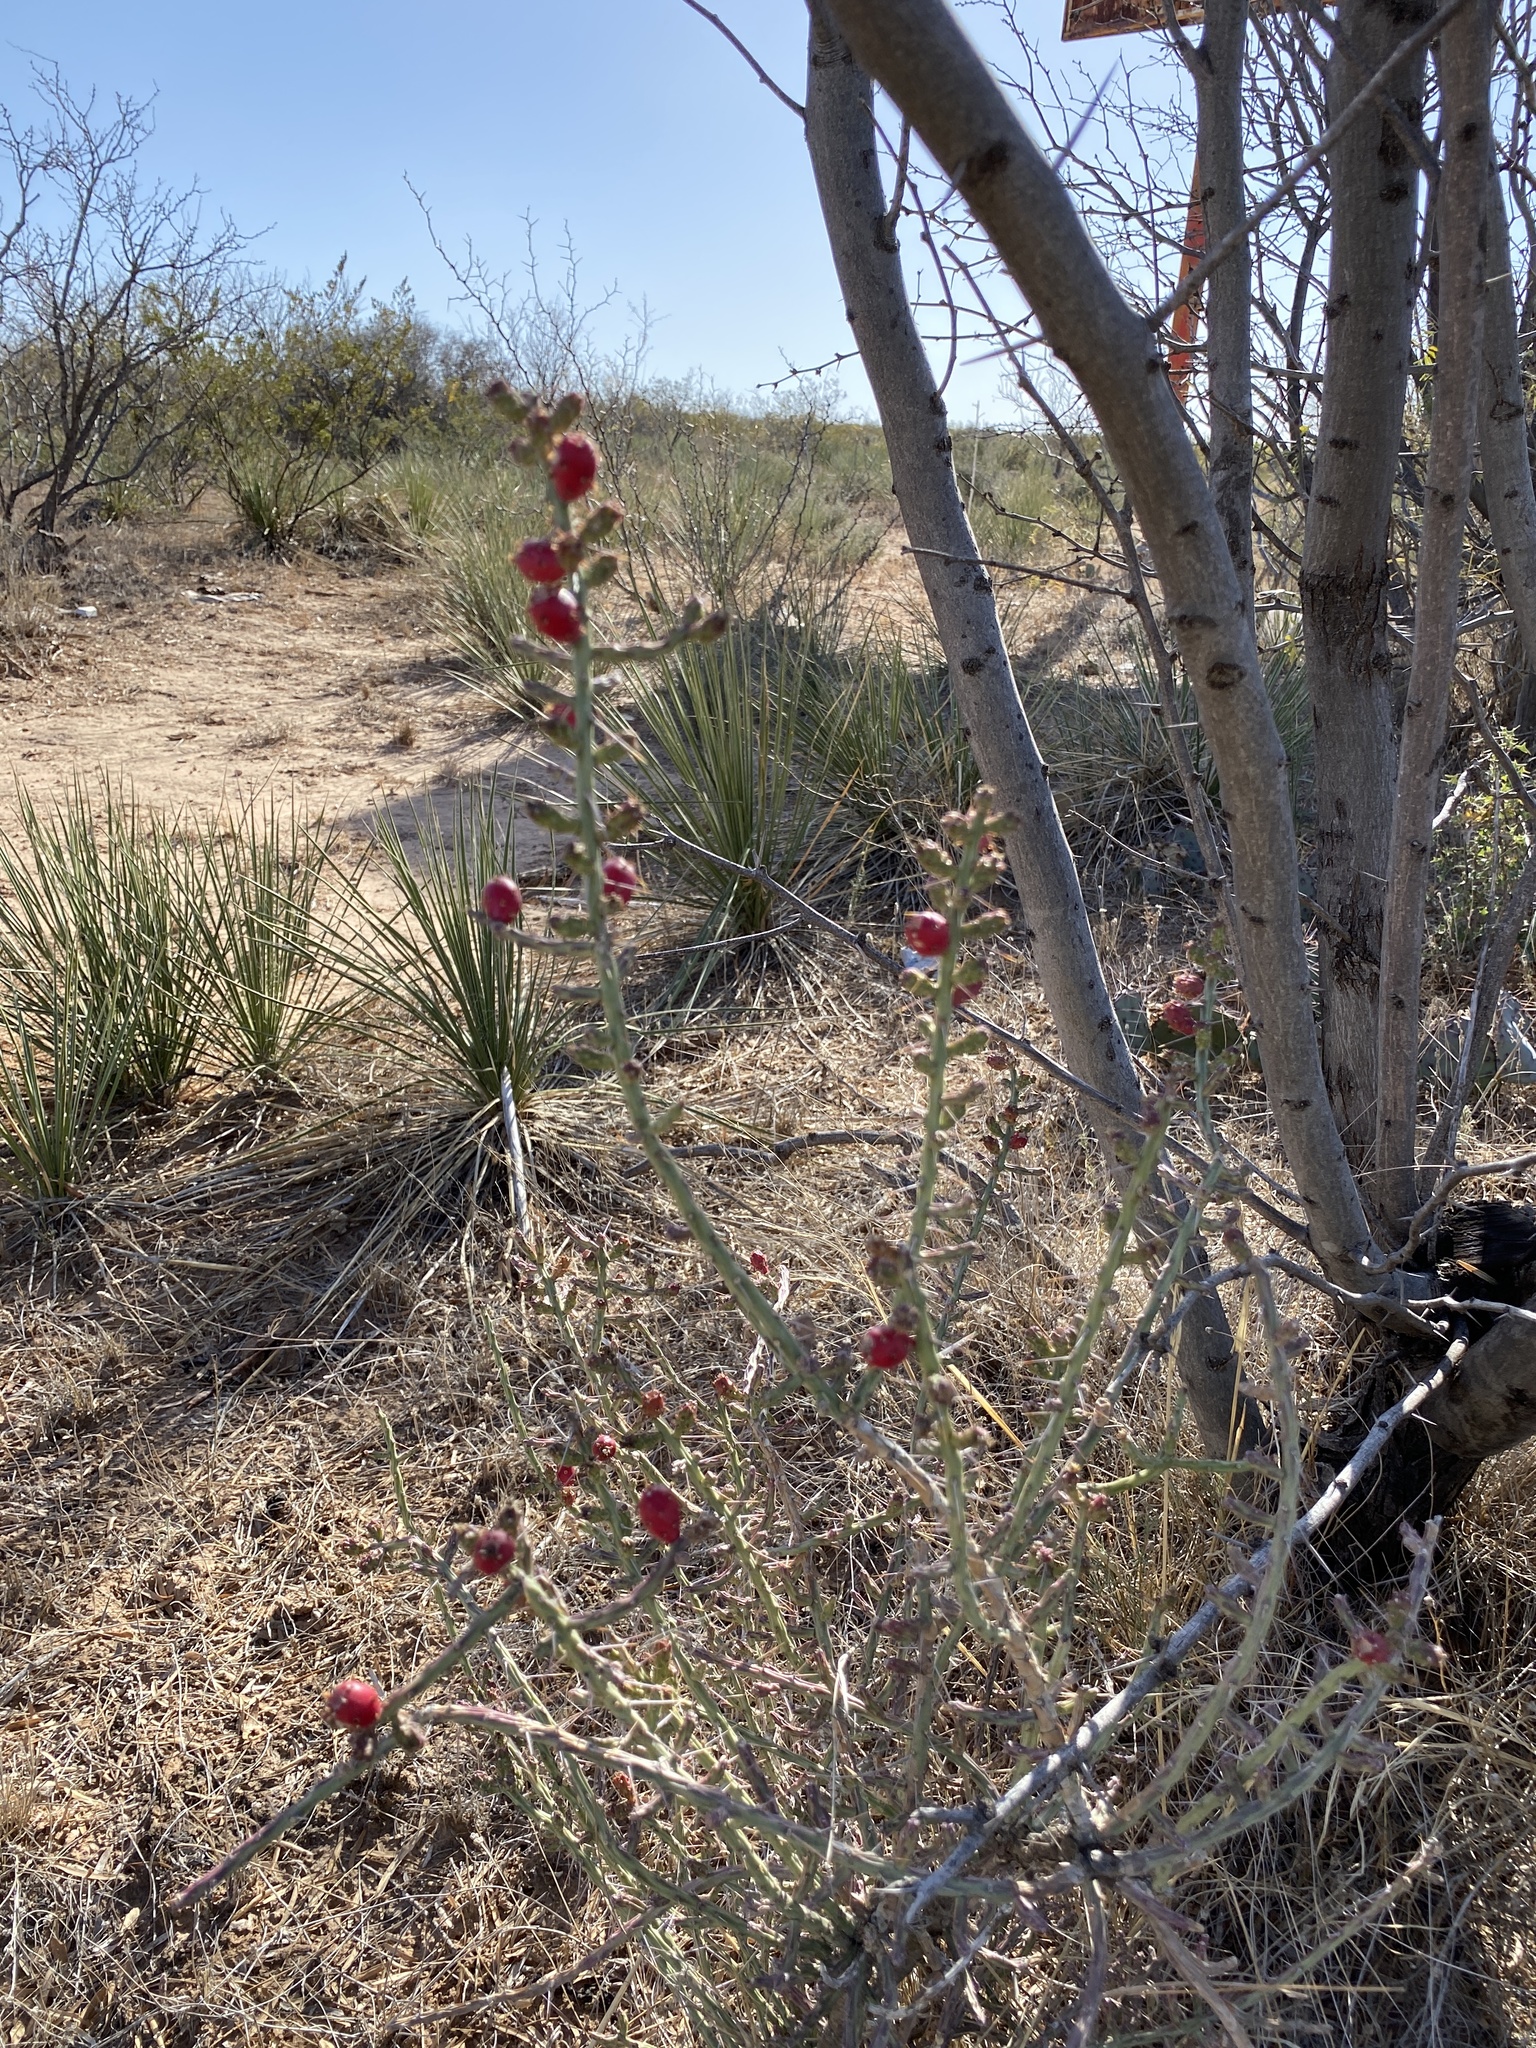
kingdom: Plantae
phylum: Tracheophyta
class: Magnoliopsida
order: Caryophyllales
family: Cactaceae
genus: Cylindropuntia
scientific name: Cylindropuntia leptocaulis
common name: Christmas cactus
